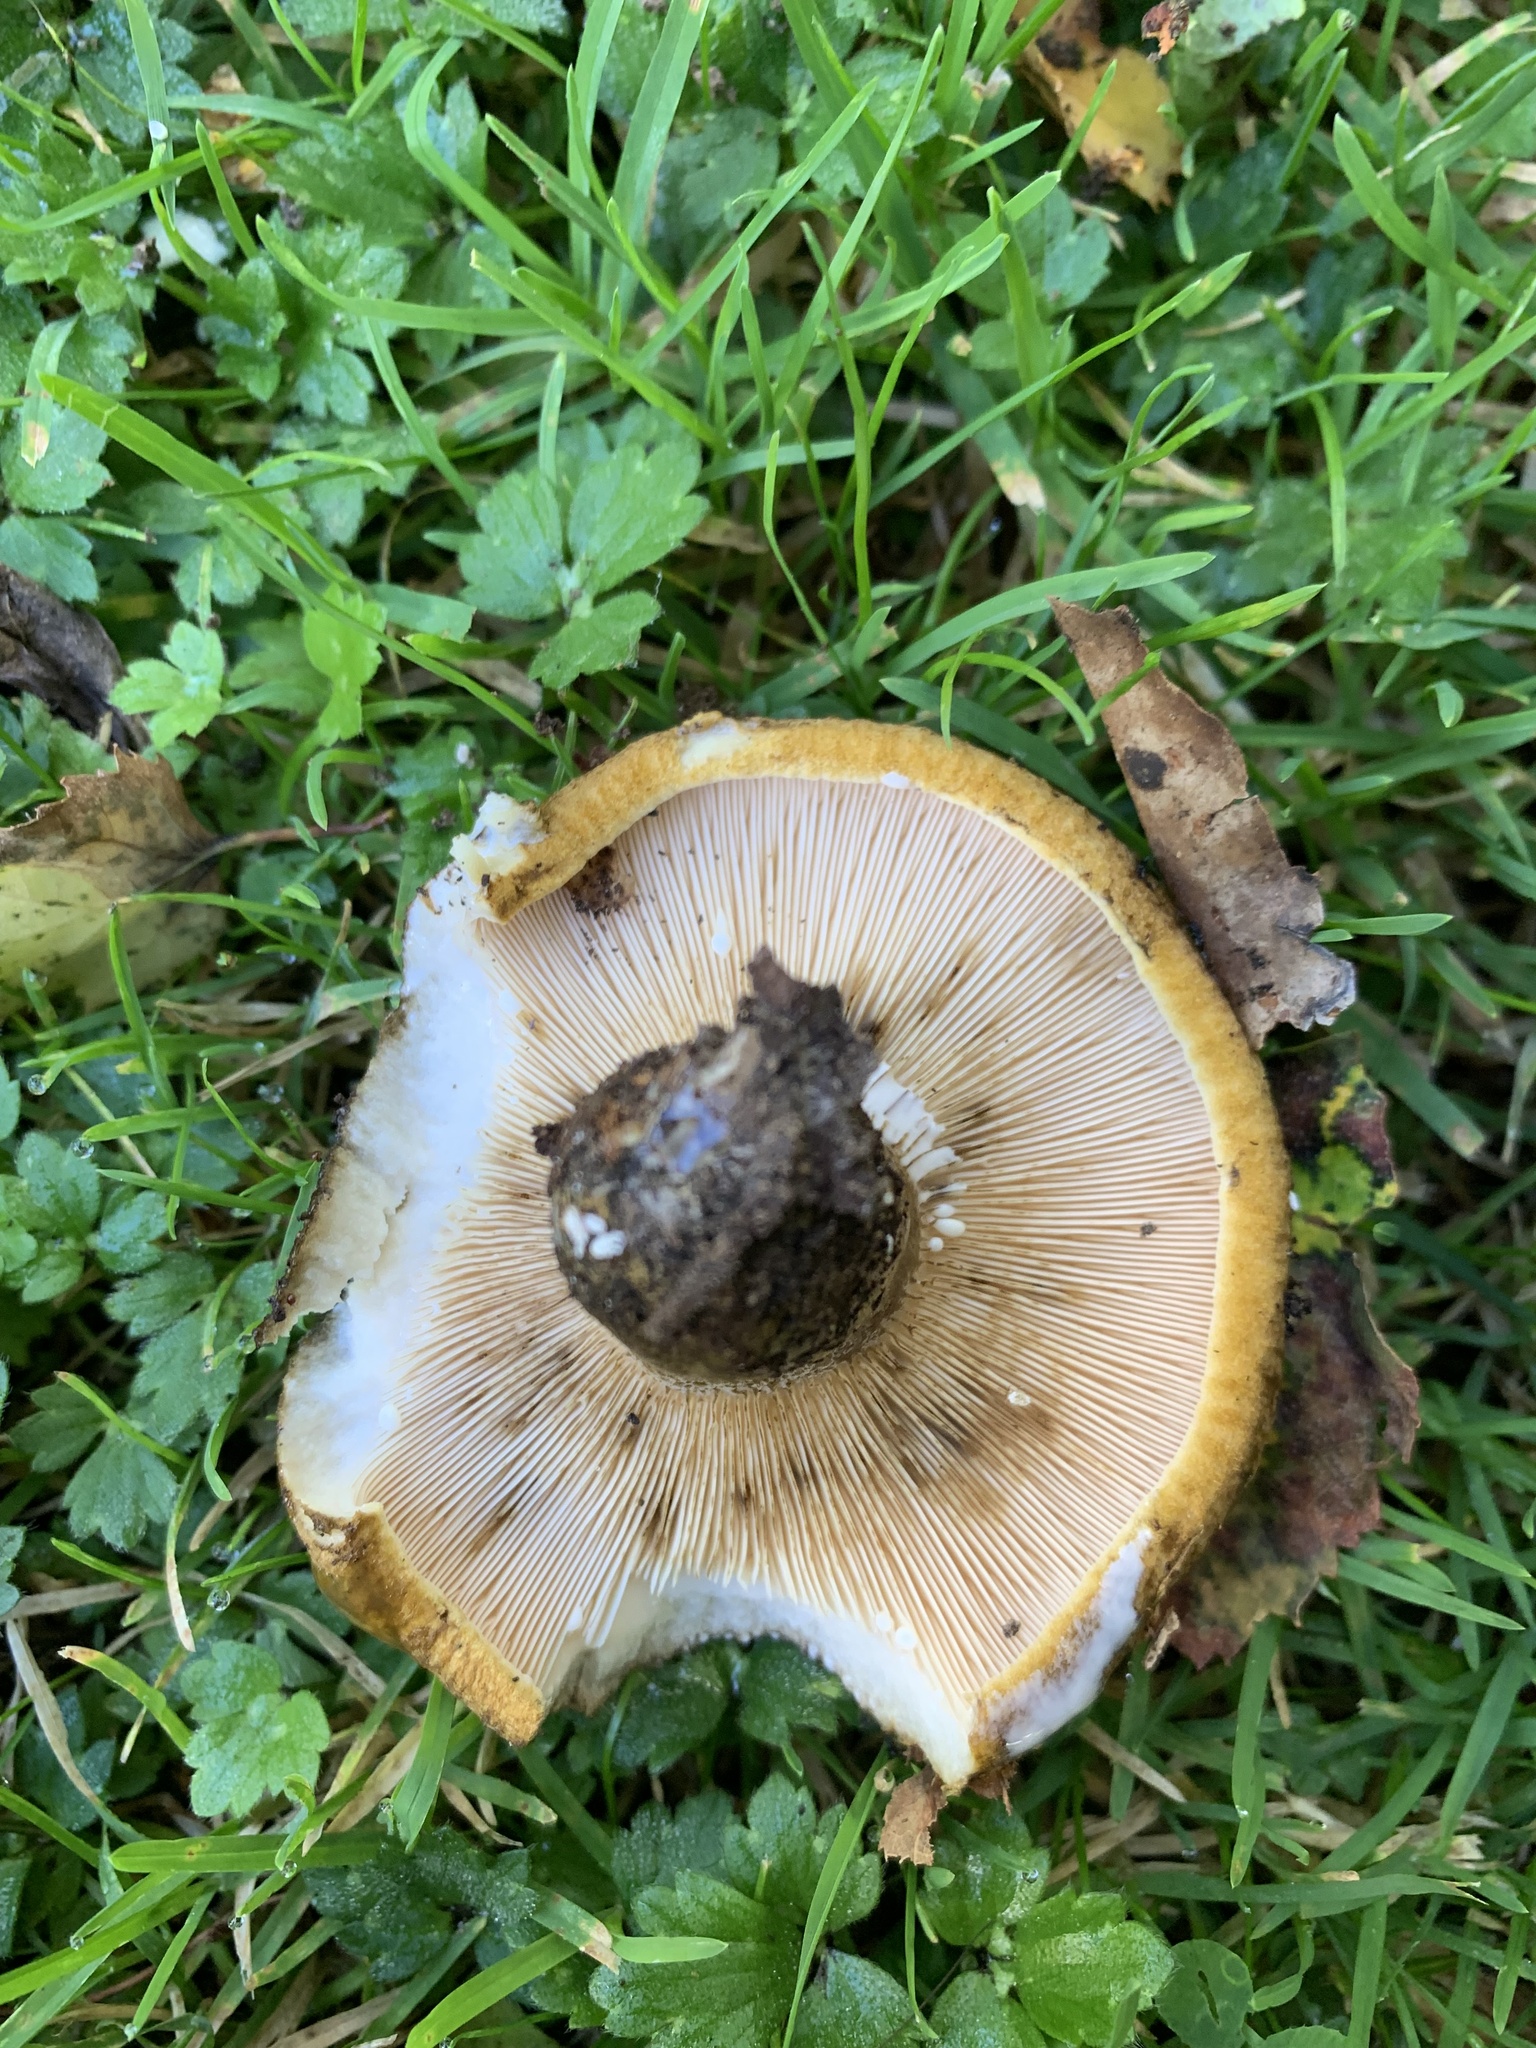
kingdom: Fungi
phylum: Basidiomycota
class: Agaricomycetes
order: Russulales
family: Russulaceae
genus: Lactarius
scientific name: Lactarius turpis
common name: Ugly milk-cap
